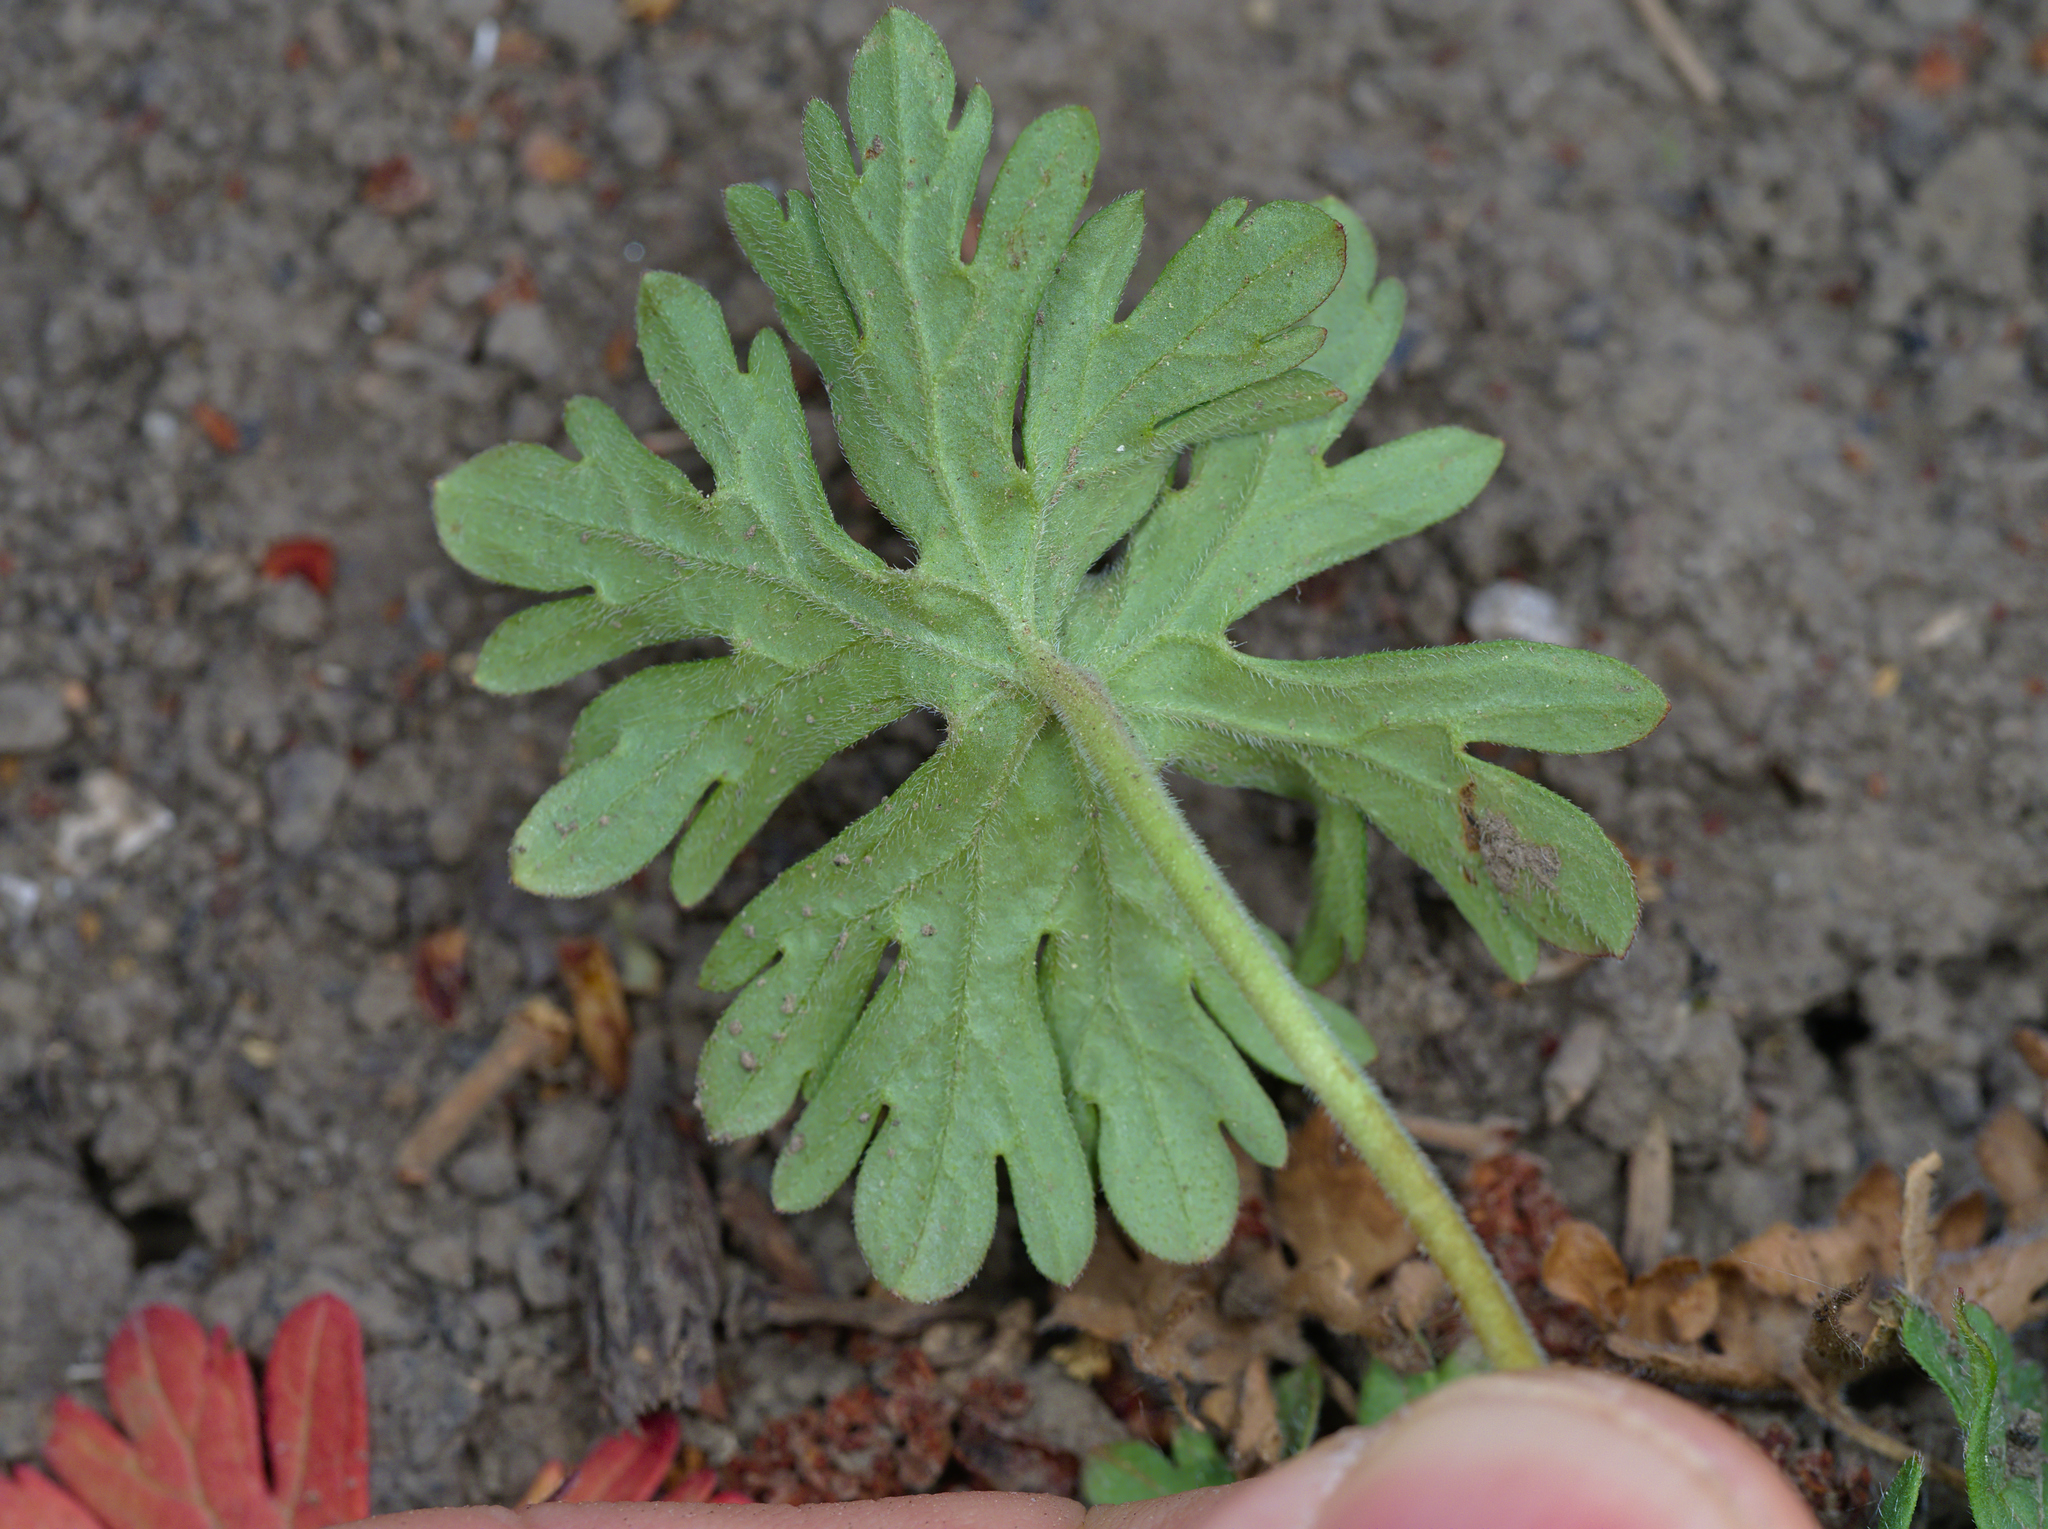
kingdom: Plantae
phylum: Tracheophyta
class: Magnoliopsida
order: Geraniales
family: Geraniaceae
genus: Geranium
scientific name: Geranium pusillum
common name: Small geranium
